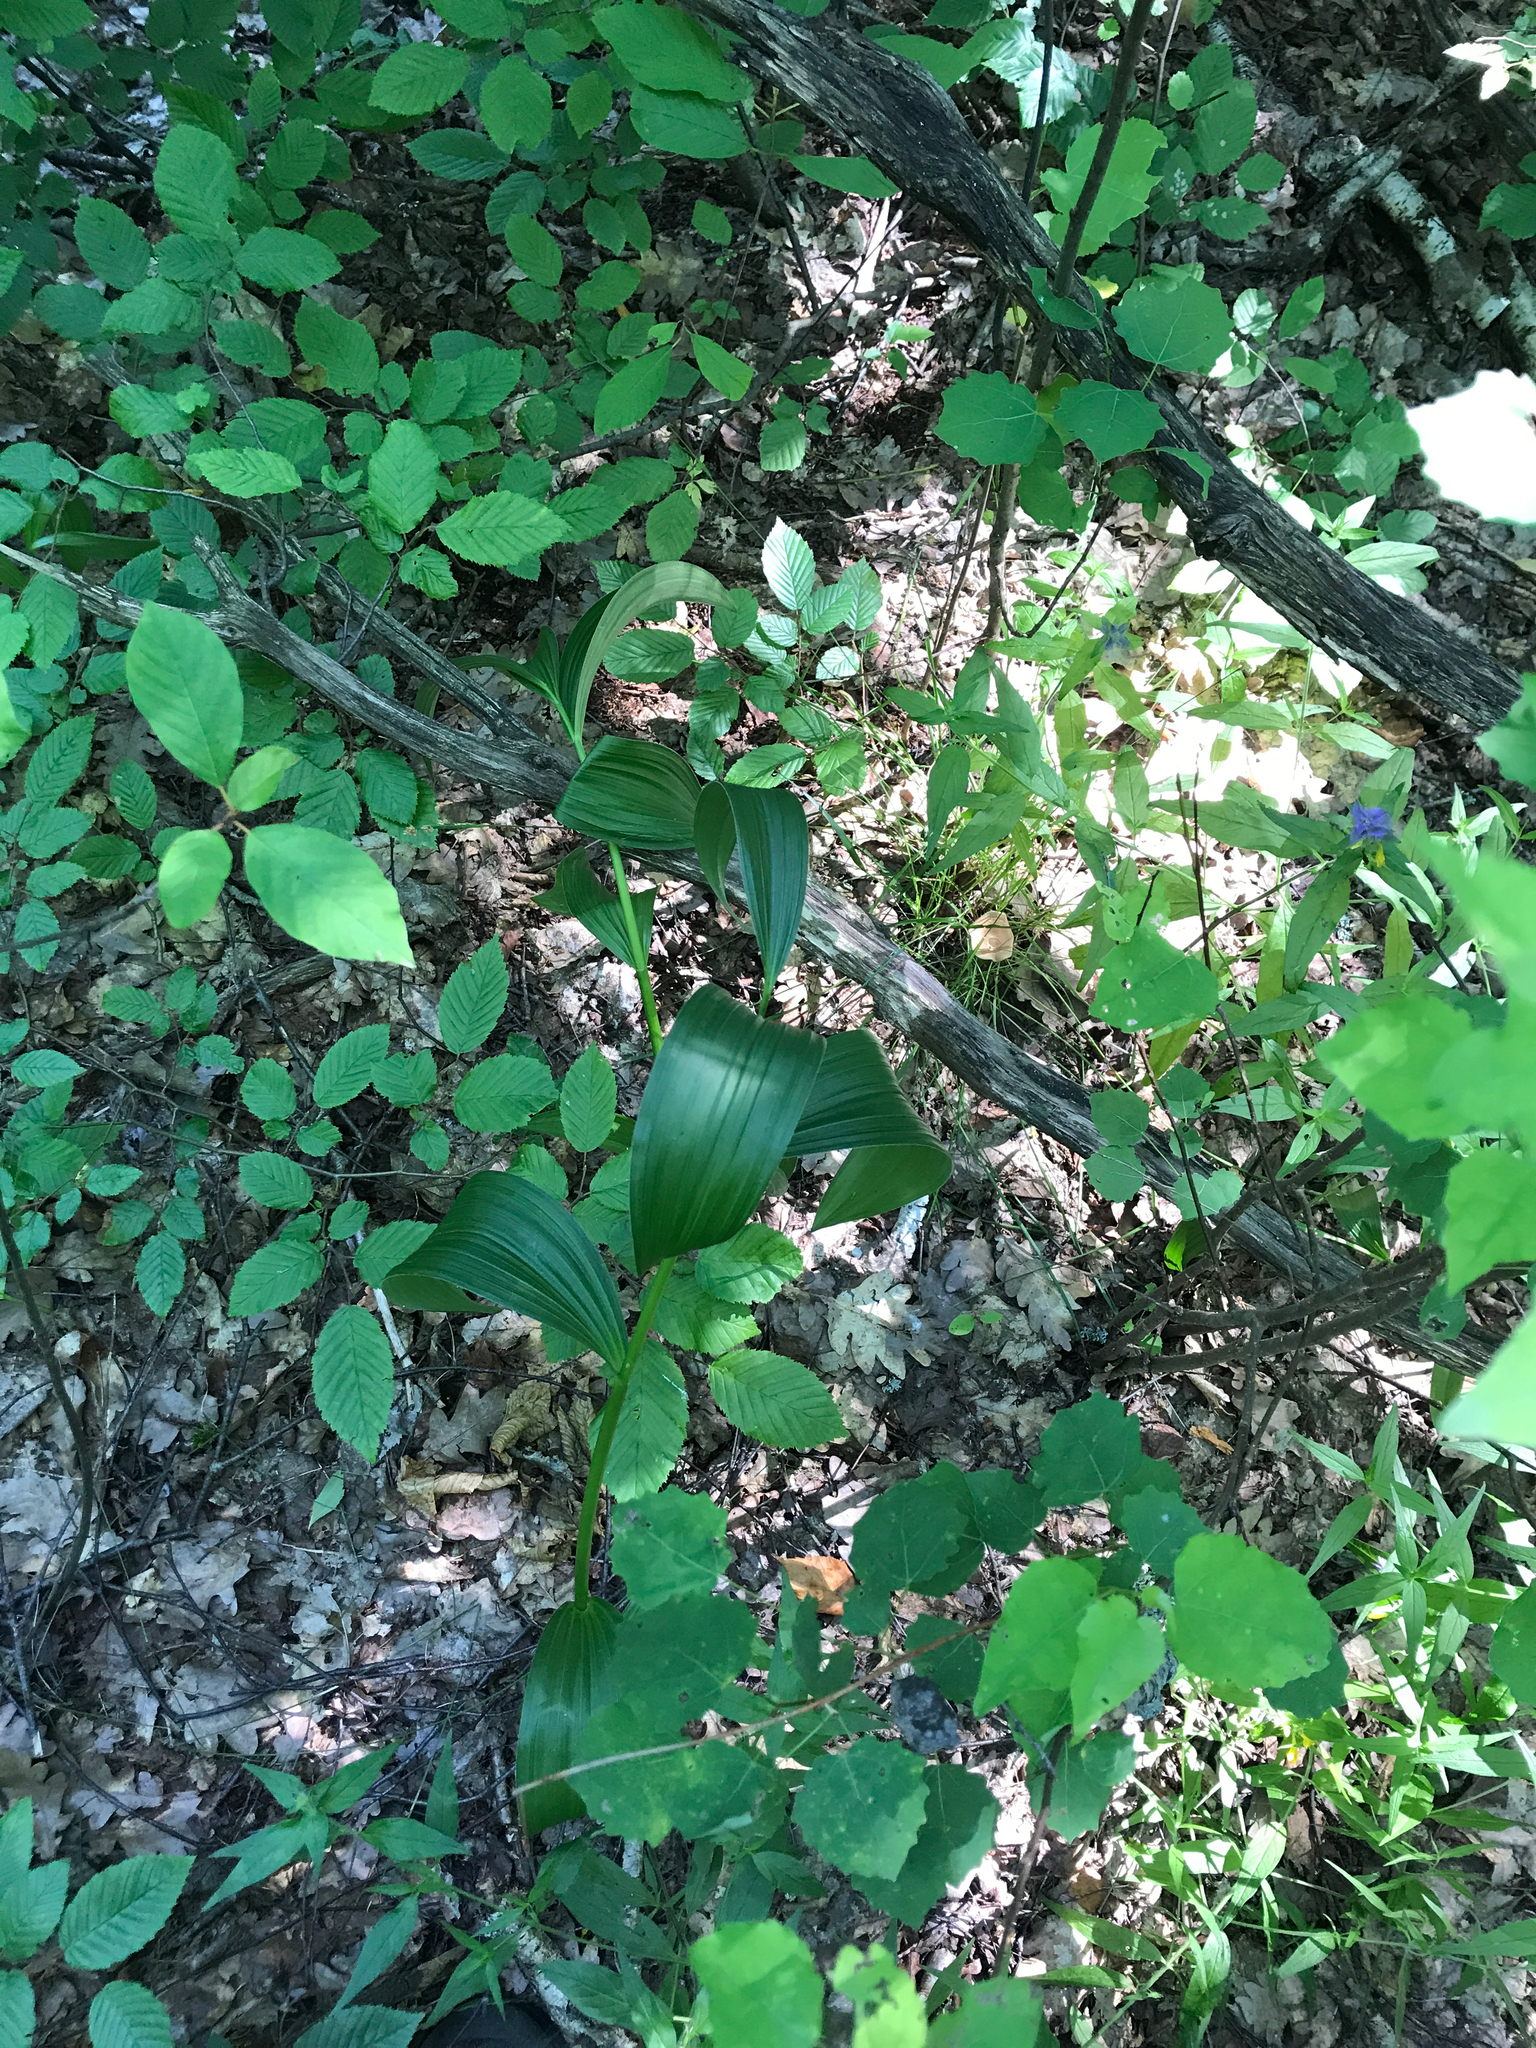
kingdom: Plantae
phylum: Tracheophyta
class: Liliopsida
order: Liliales
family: Melanthiaceae
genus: Veratrum
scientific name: Veratrum lobelianum
